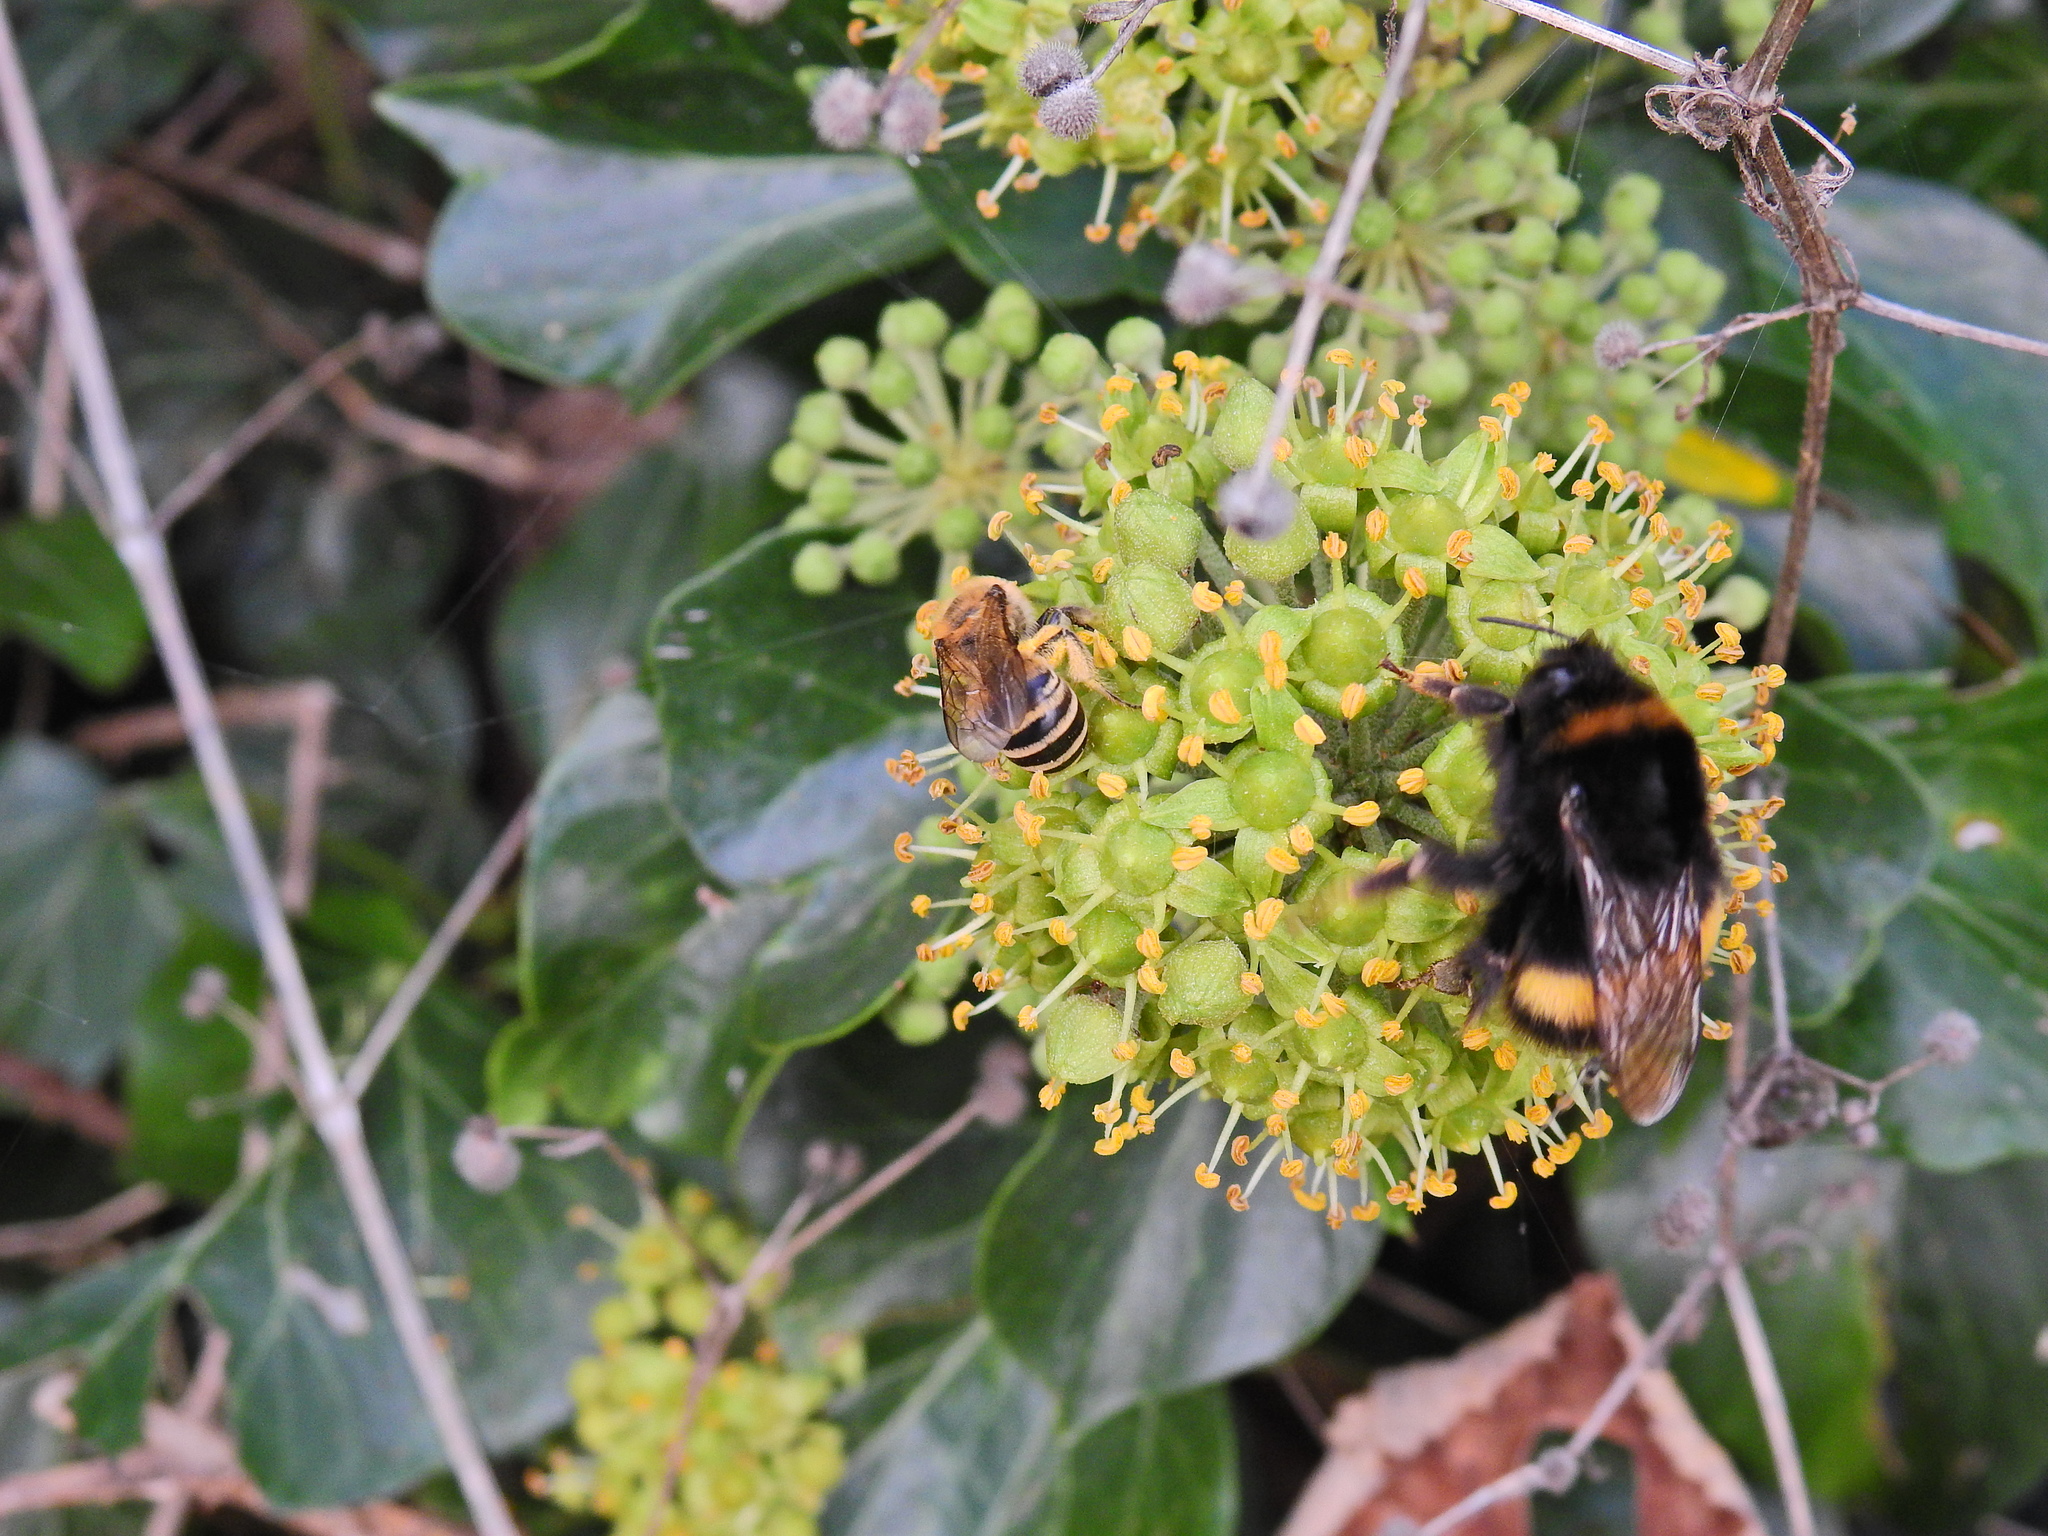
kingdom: Animalia
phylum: Arthropoda
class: Insecta
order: Hymenoptera
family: Colletidae
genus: Colletes
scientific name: Colletes hederae
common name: Ivy bee
